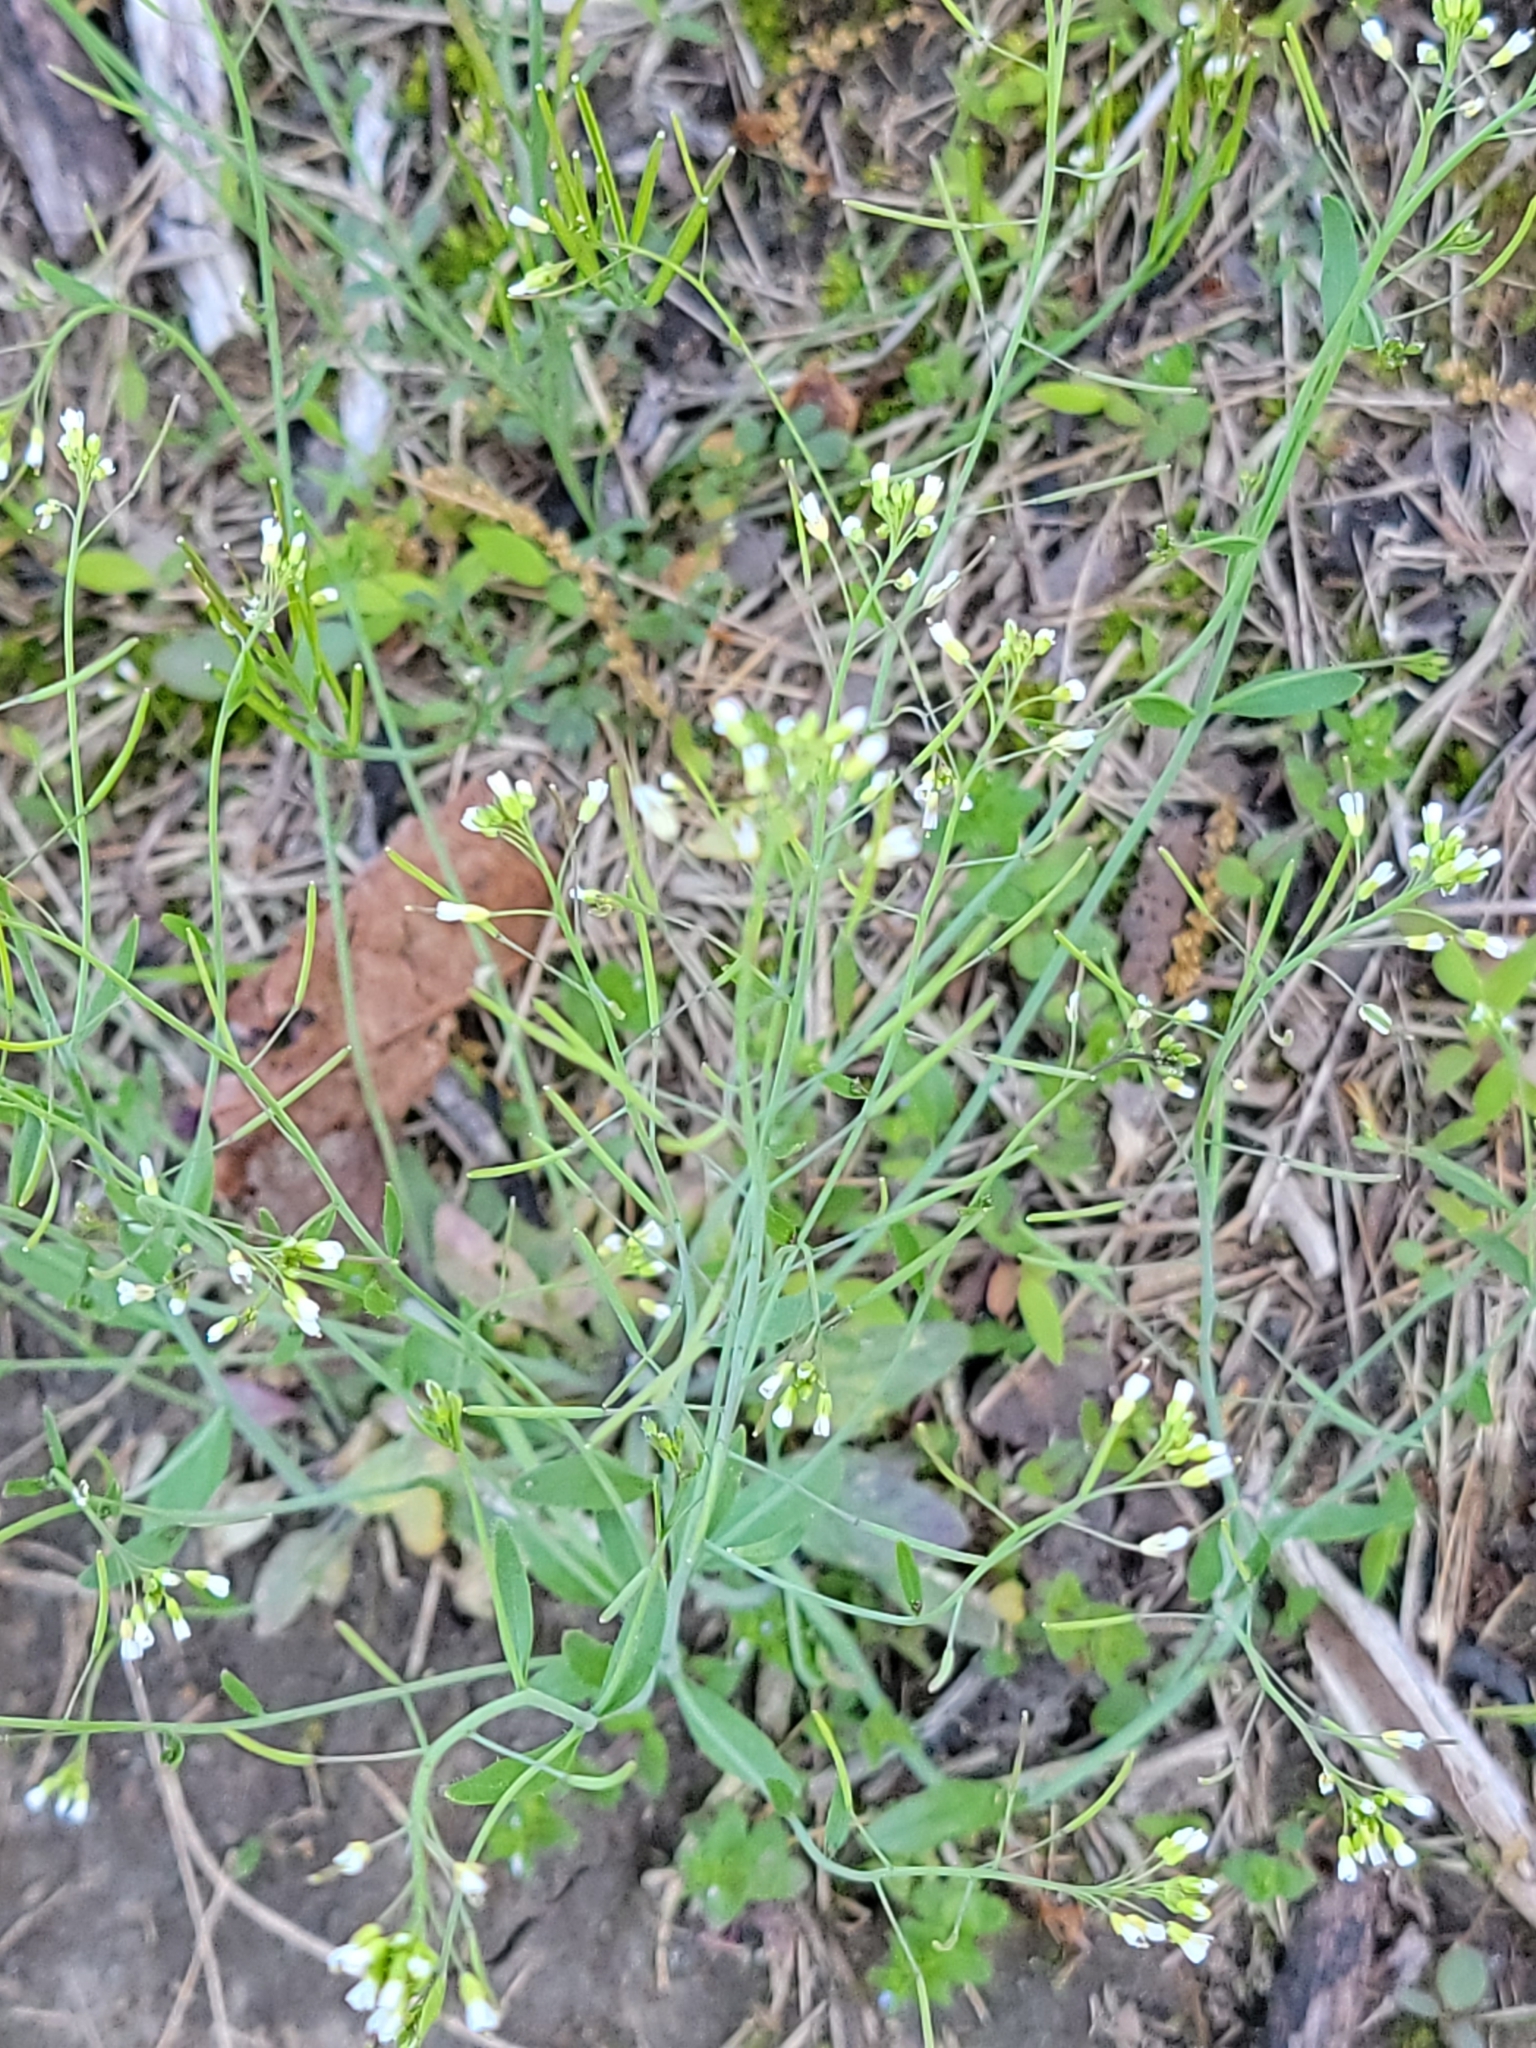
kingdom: Plantae
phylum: Tracheophyta
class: Magnoliopsida
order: Brassicales
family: Brassicaceae
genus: Arabidopsis
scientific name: Arabidopsis thaliana
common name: Thale cress
